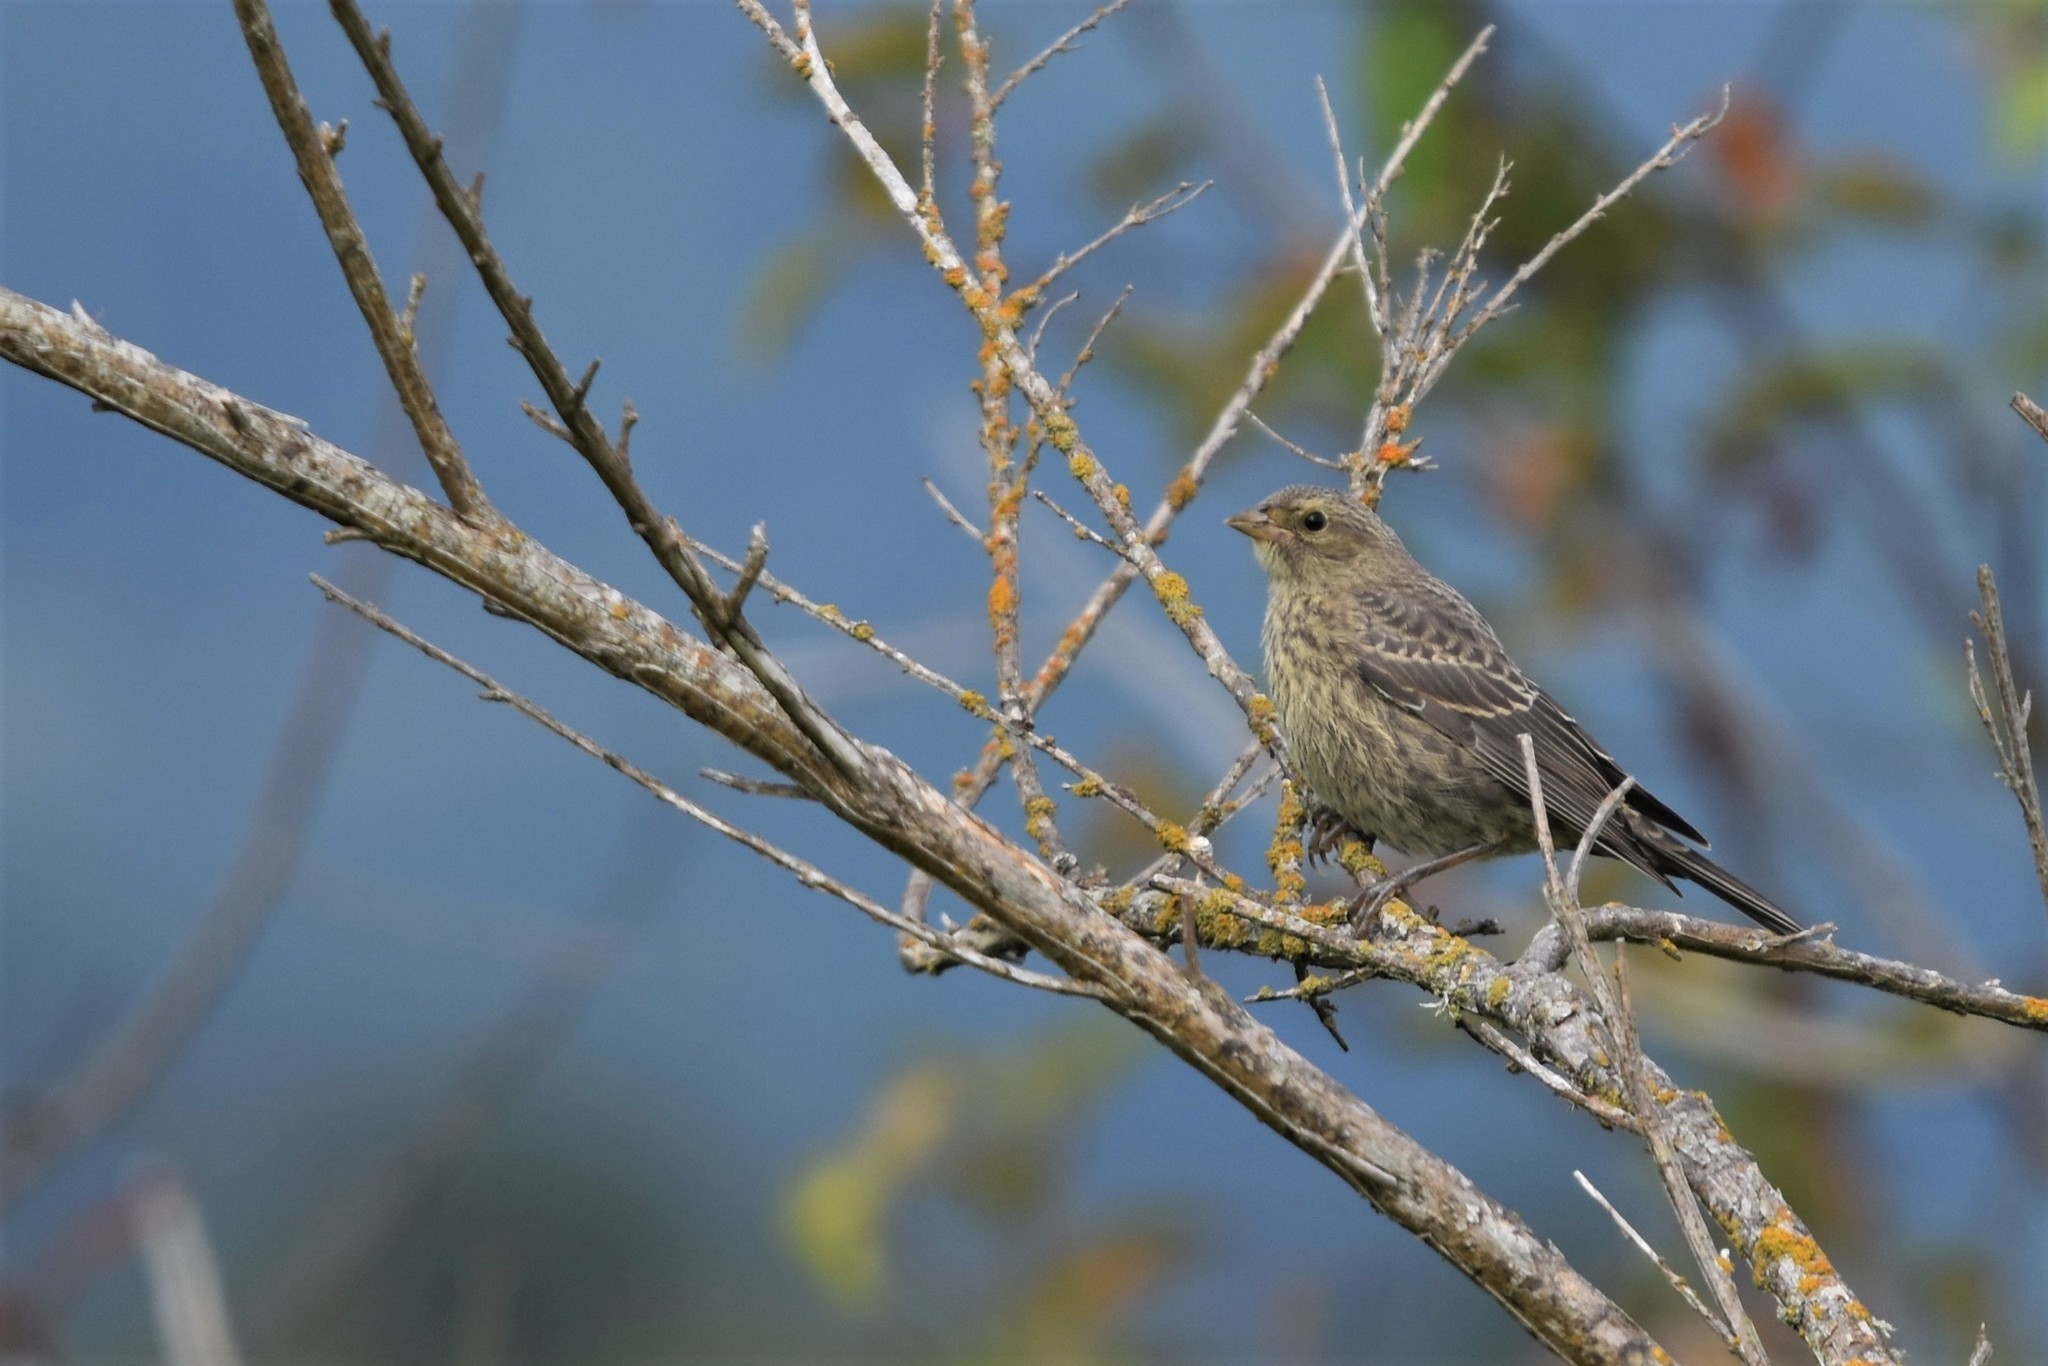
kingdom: Animalia
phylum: Chordata
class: Aves
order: Passeriformes
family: Icteridae
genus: Molothrus
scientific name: Molothrus ater
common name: Brown-headed cowbird
